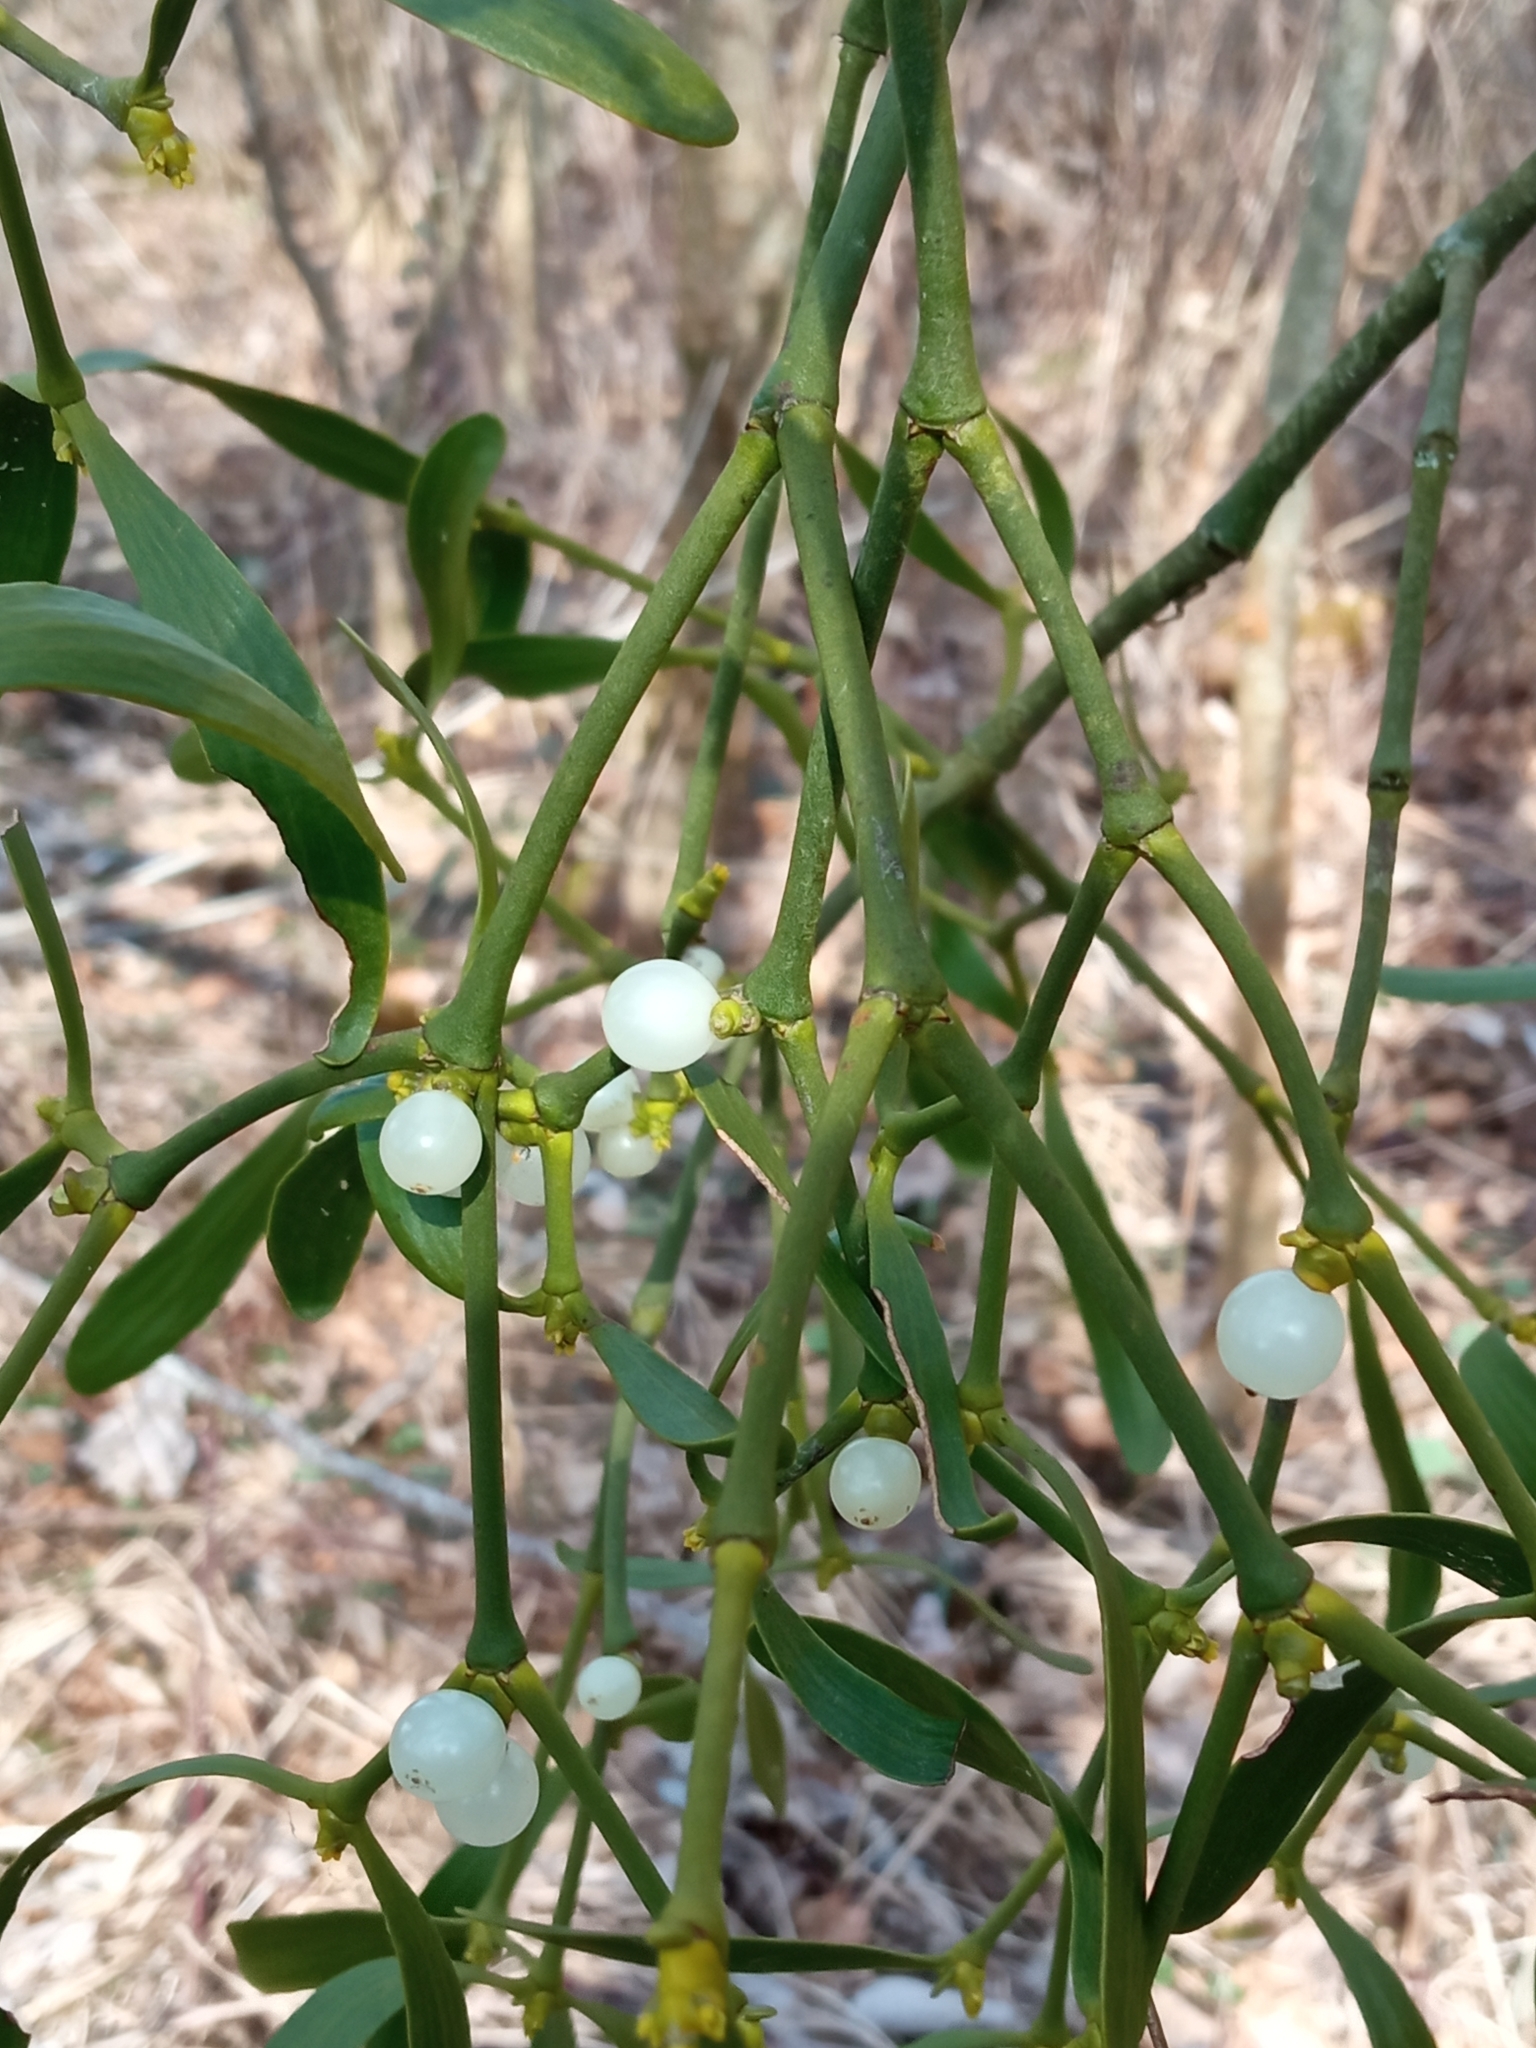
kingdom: Plantae
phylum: Tracheophyta
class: Magnoliopsida
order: Santalales
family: Viscaceae
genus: Viscum
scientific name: Viscum album
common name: Mistletoe
